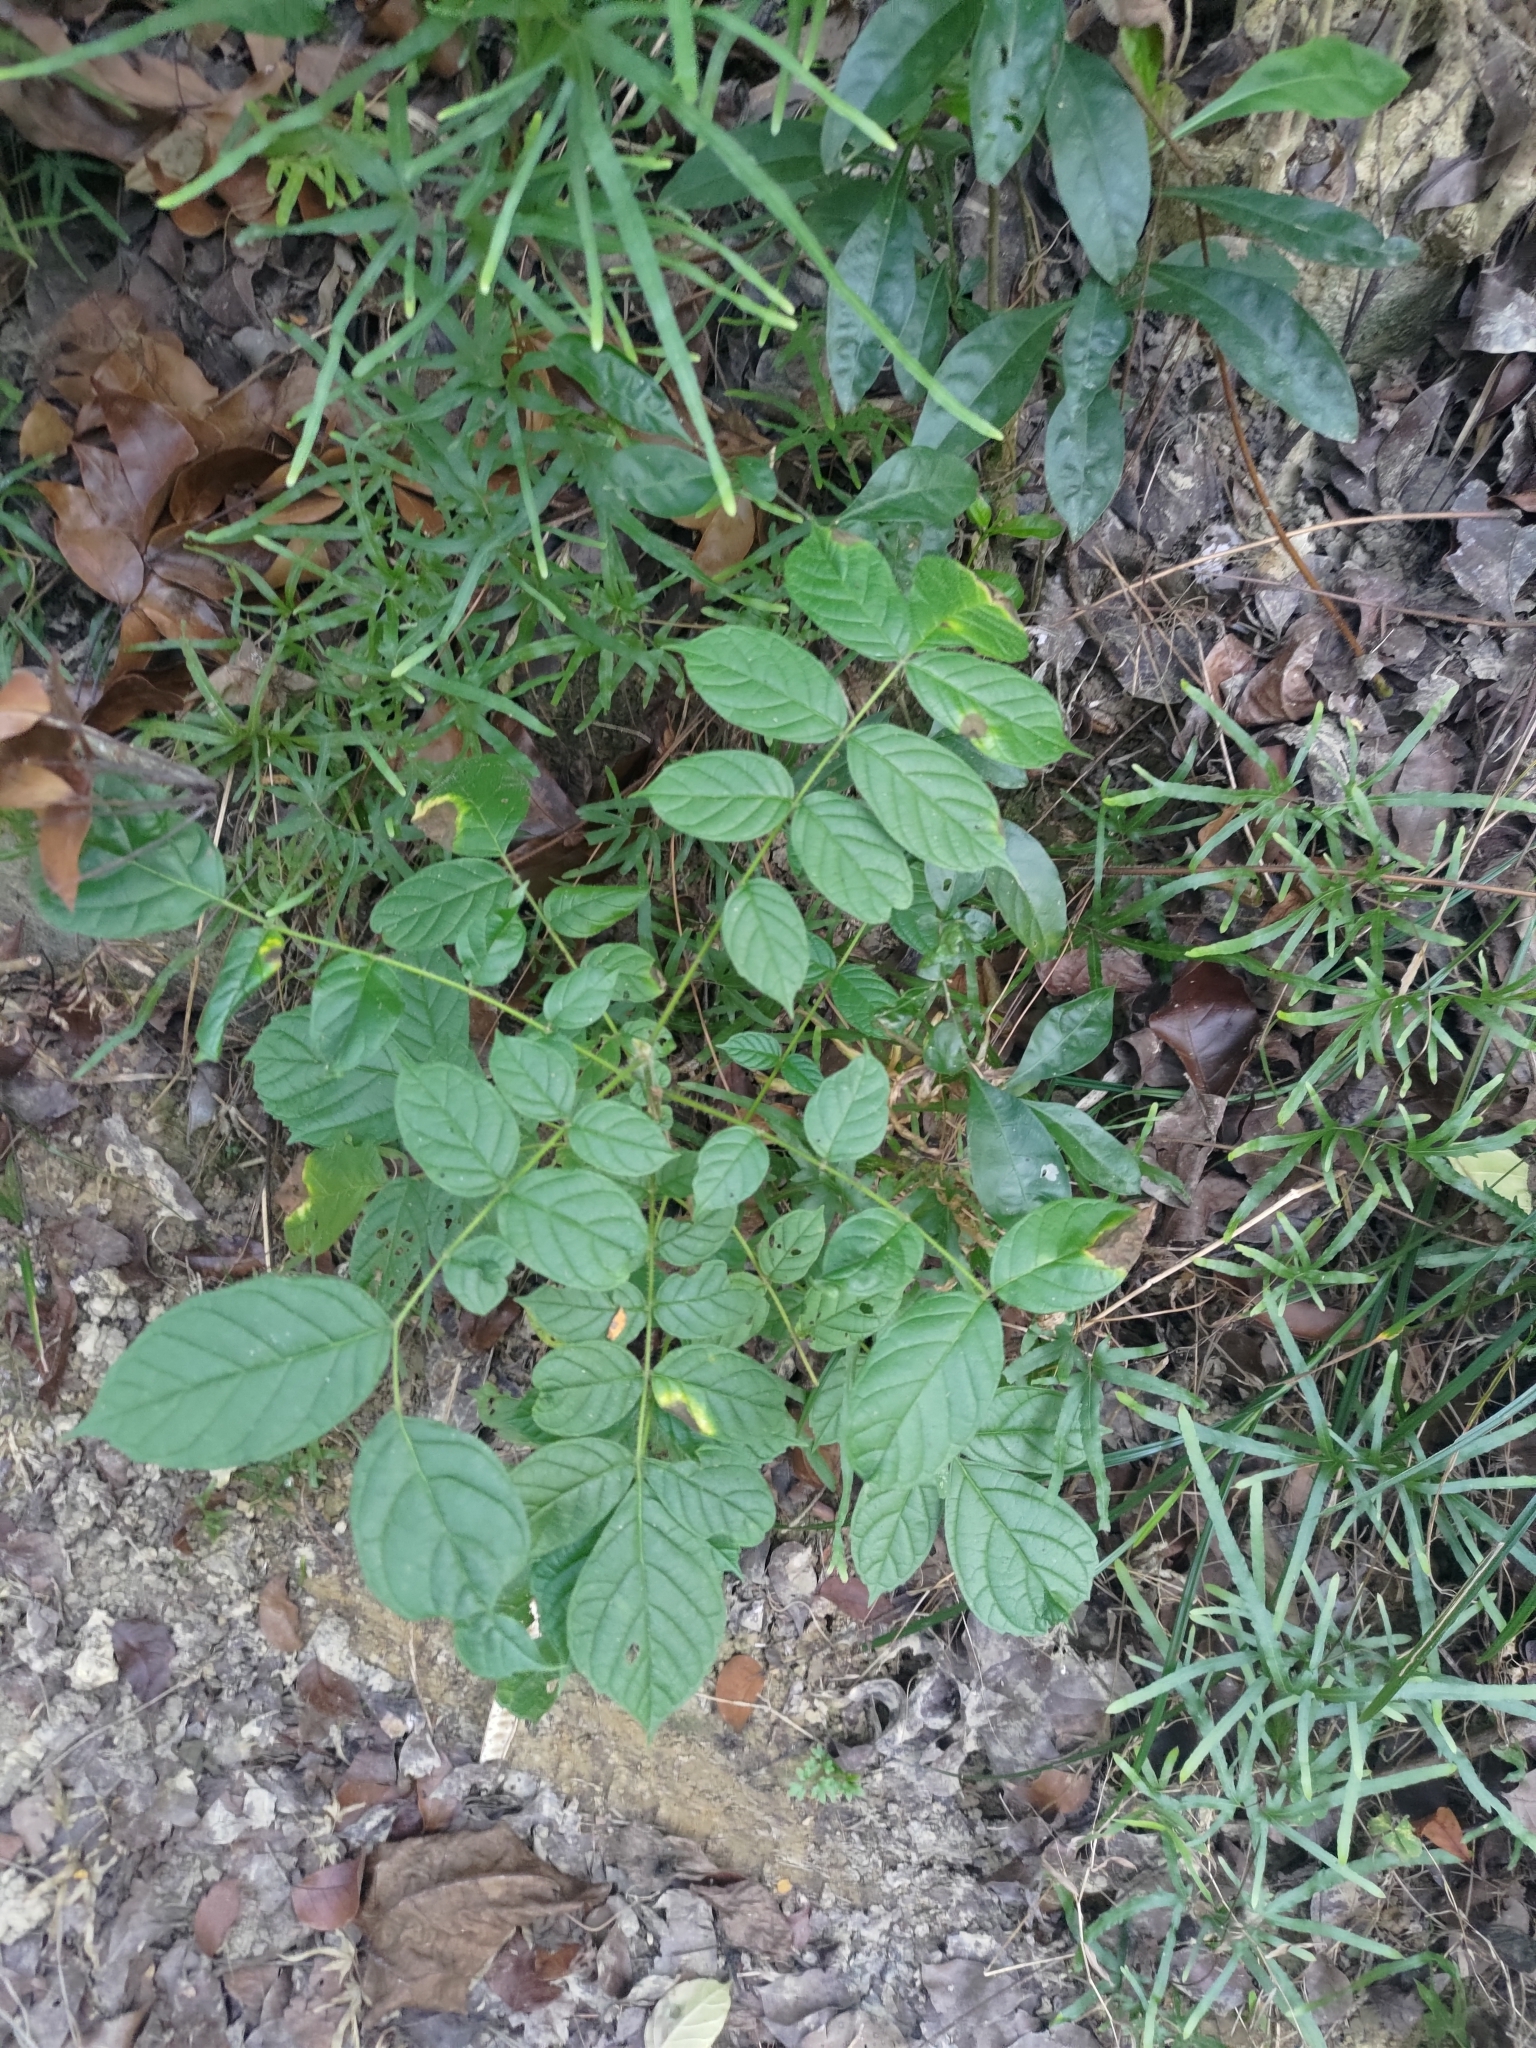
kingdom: Plantae
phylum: Tracheophyta
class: Magnoliopsida
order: Lamiales
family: Bignoniaceae
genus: Spathodea
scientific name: Spathodea campanulata
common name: African tuliptree
